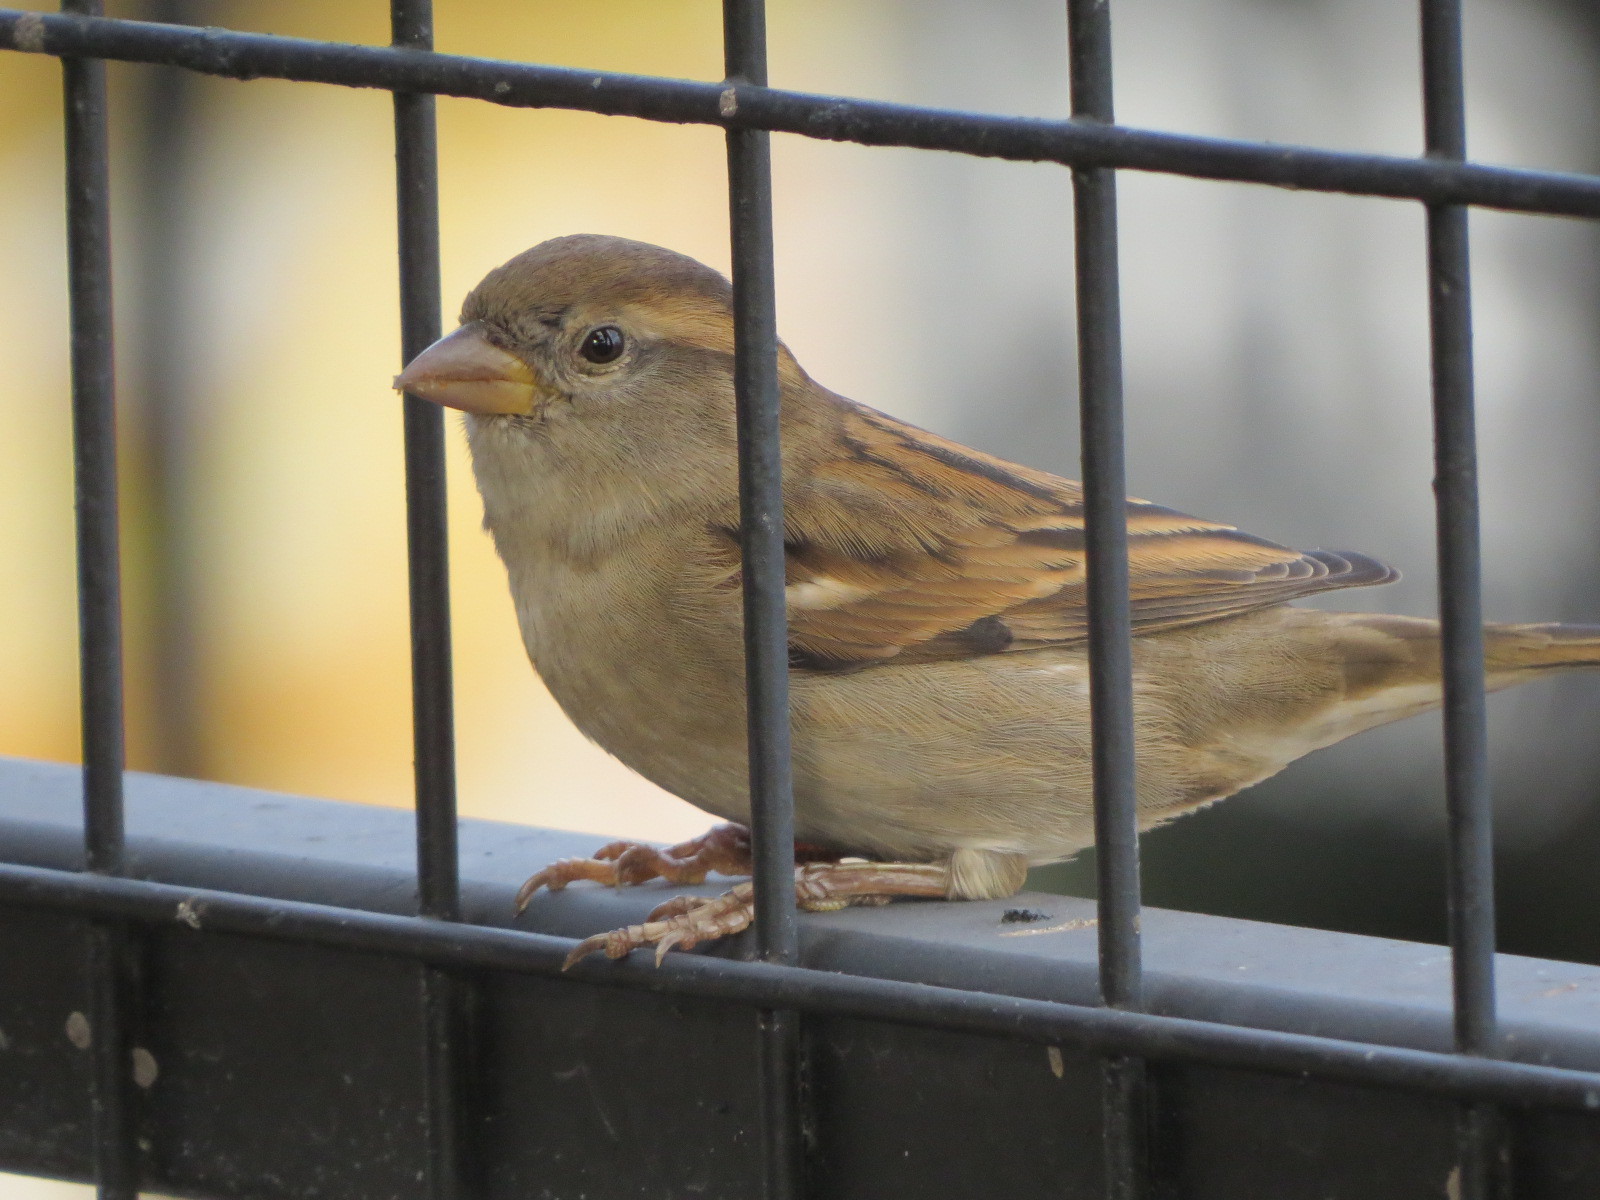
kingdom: Animalia
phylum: Chordata
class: Aves
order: Passeriformes
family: Passeridae
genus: Passer
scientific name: Passer domesticus
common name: House sparrow
